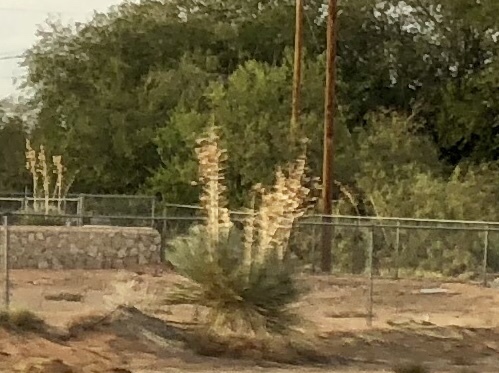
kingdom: Plantae
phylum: Tracheophyta
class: Liliopsida
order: Asparagales
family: Asparagaceae
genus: Yucca
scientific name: Yucca elata
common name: Palmella
